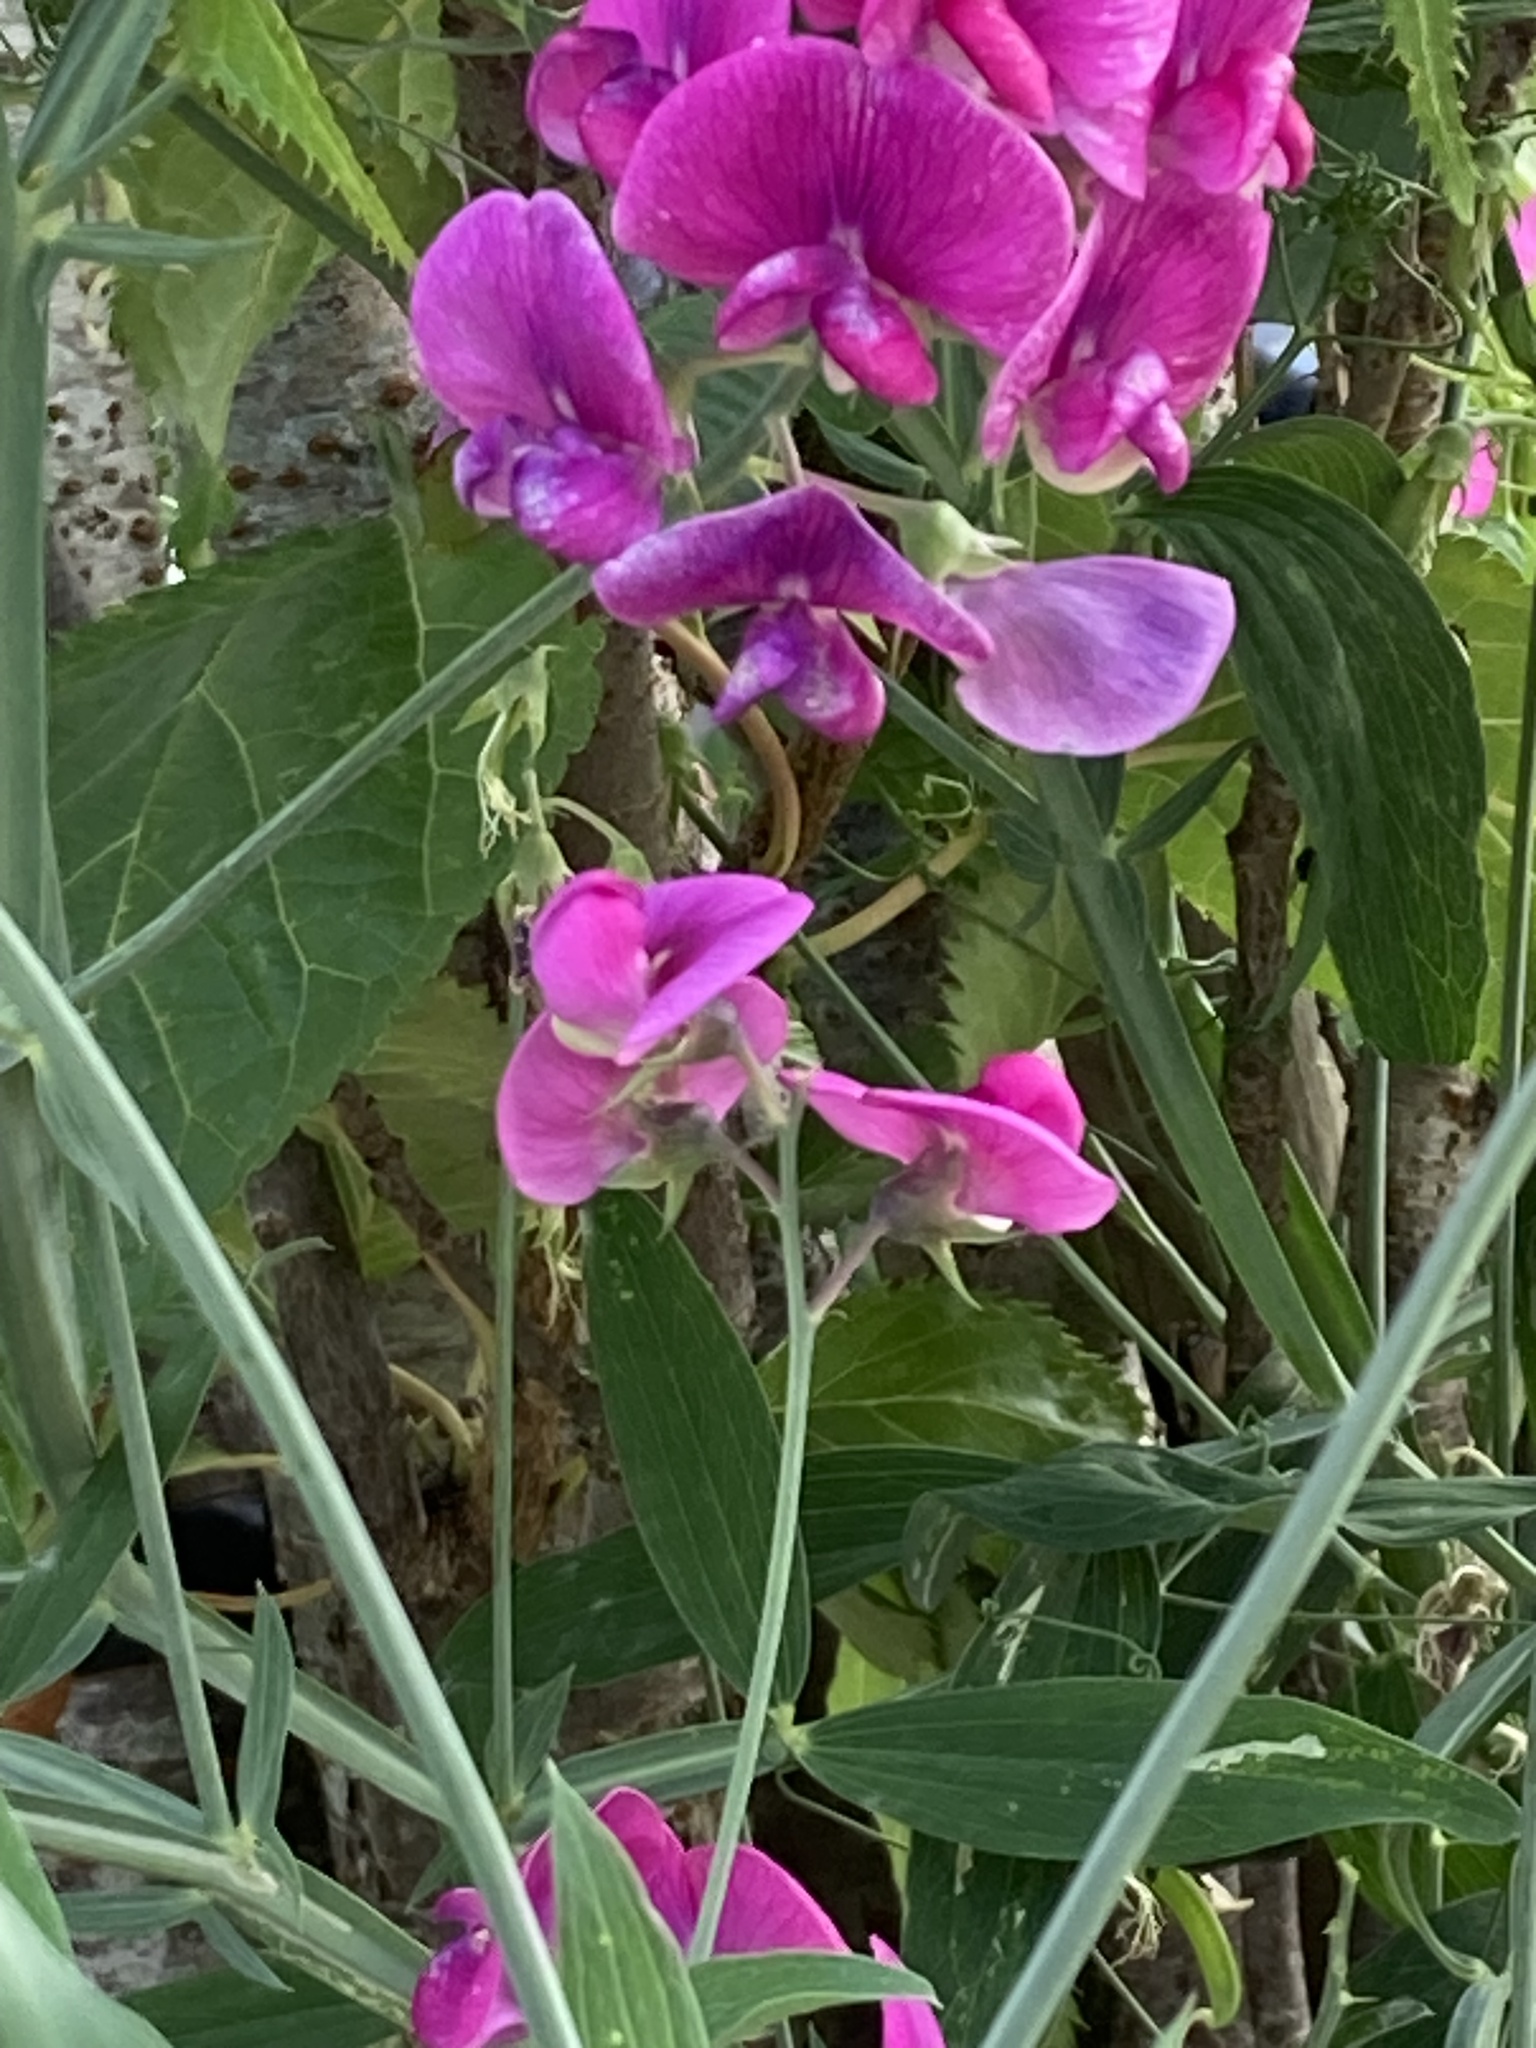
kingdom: Plantae
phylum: Tracheophyta
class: Magnoliopsida
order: Fabales
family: Fabaceae
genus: Lathyrus
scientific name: Lathyrus latifolius
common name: Perennial pea
